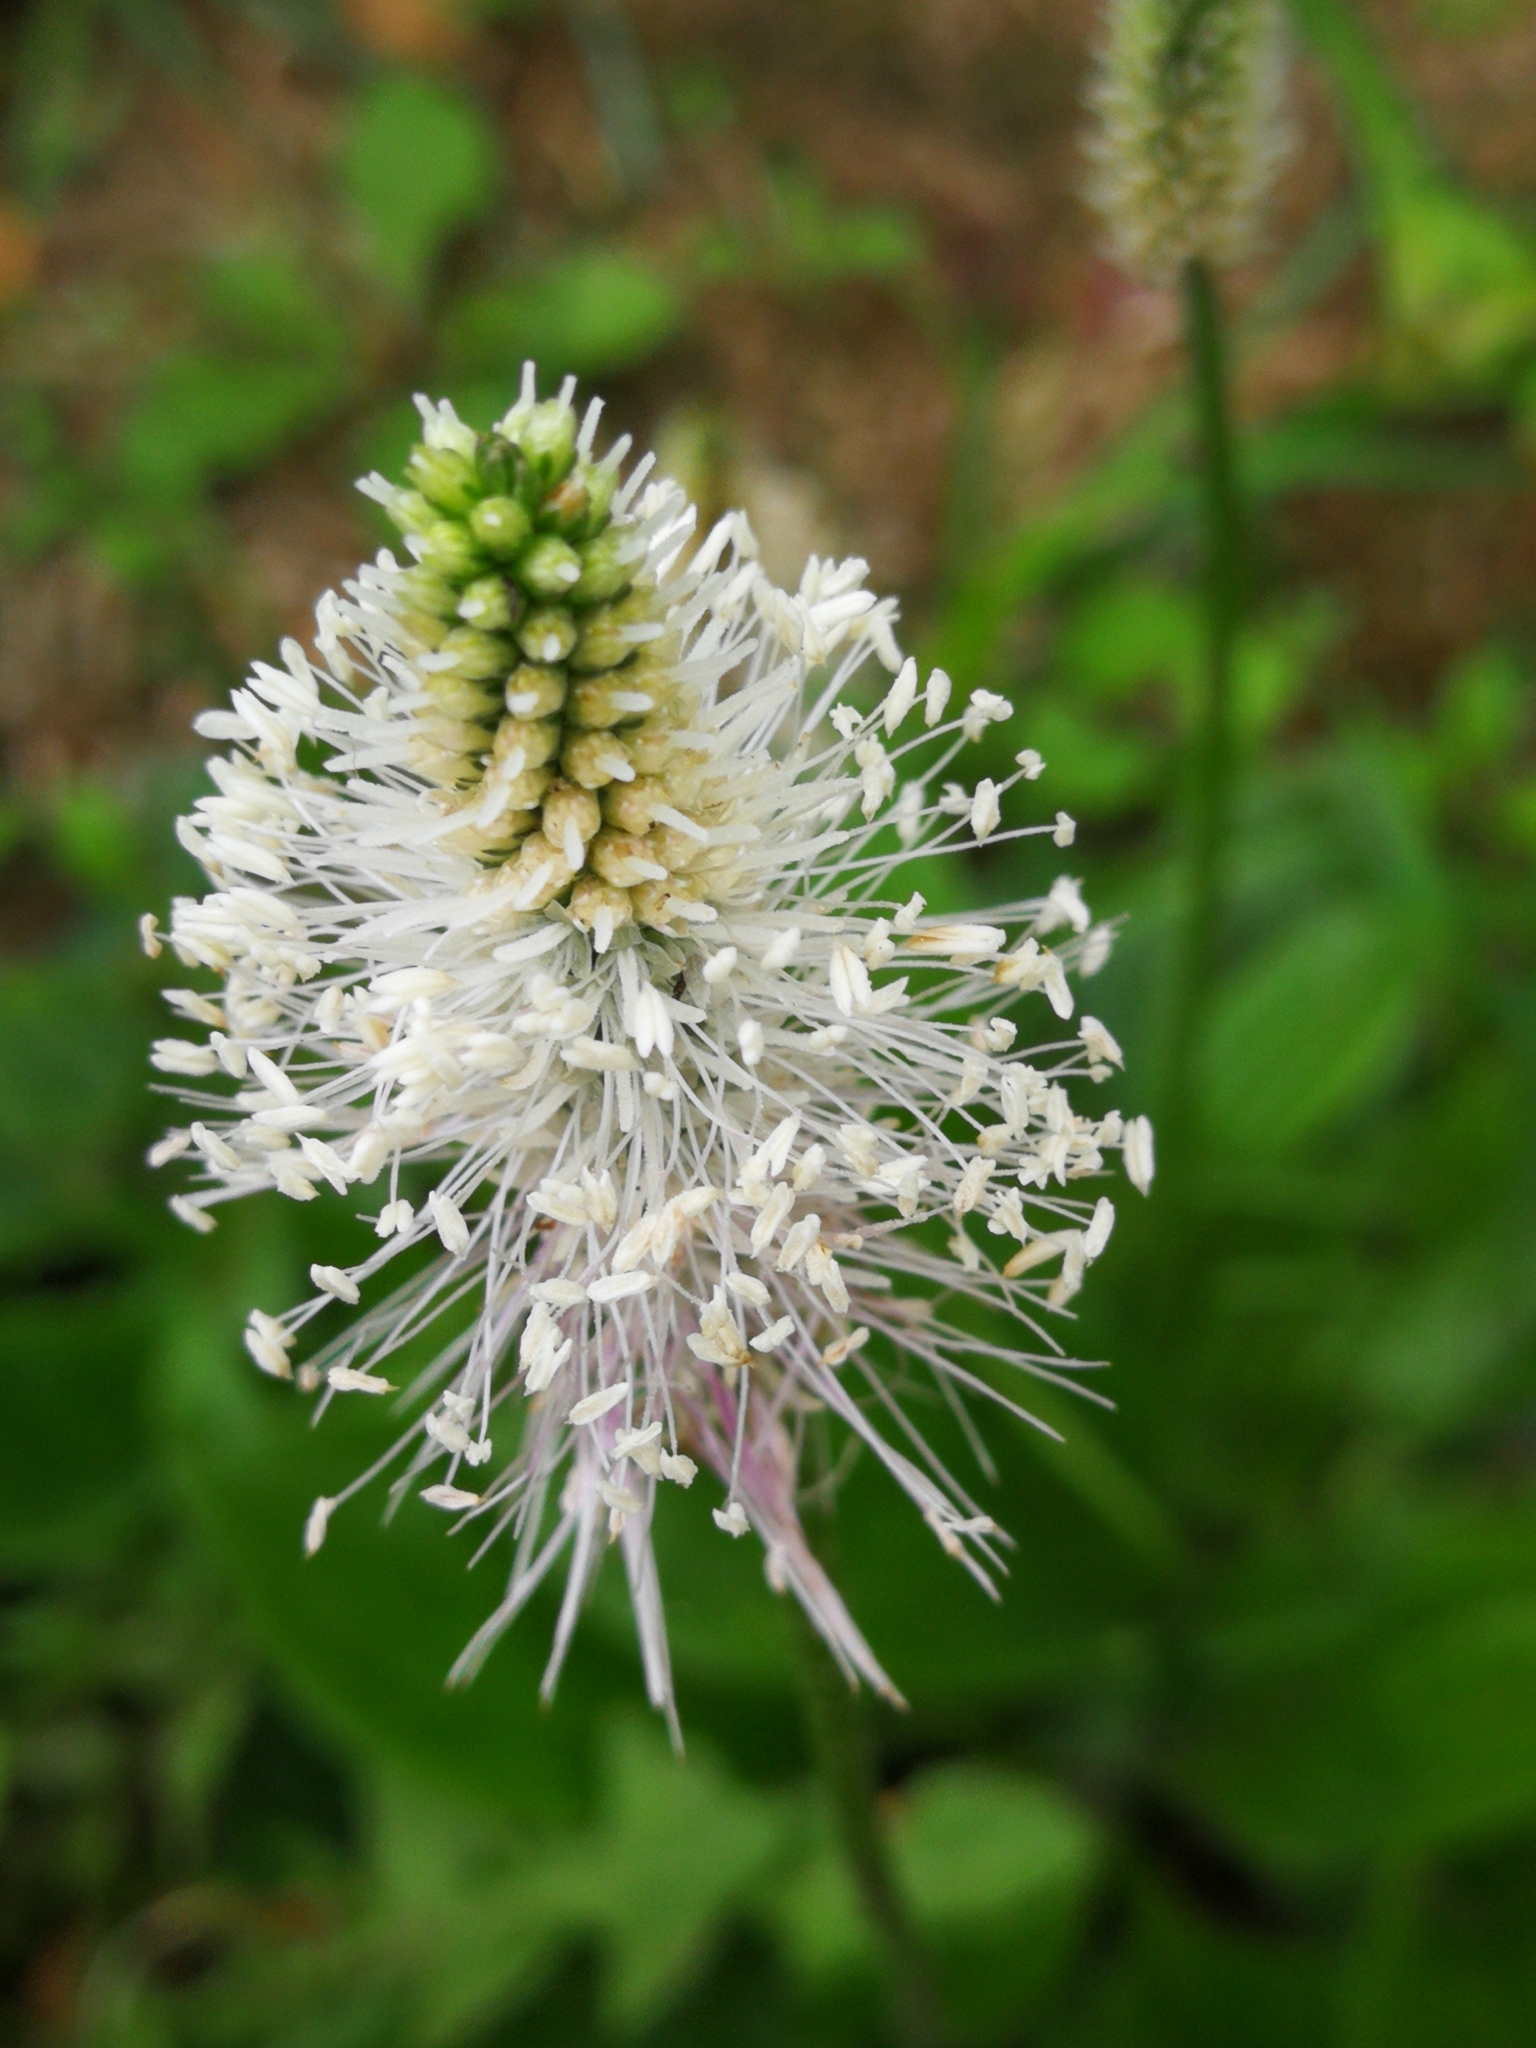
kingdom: Plantae
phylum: Tracheophyta
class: Magnoliopsida
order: Lamiales
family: Plantaginaceae
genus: Plantago
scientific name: Plantago media
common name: Hoary plantain
